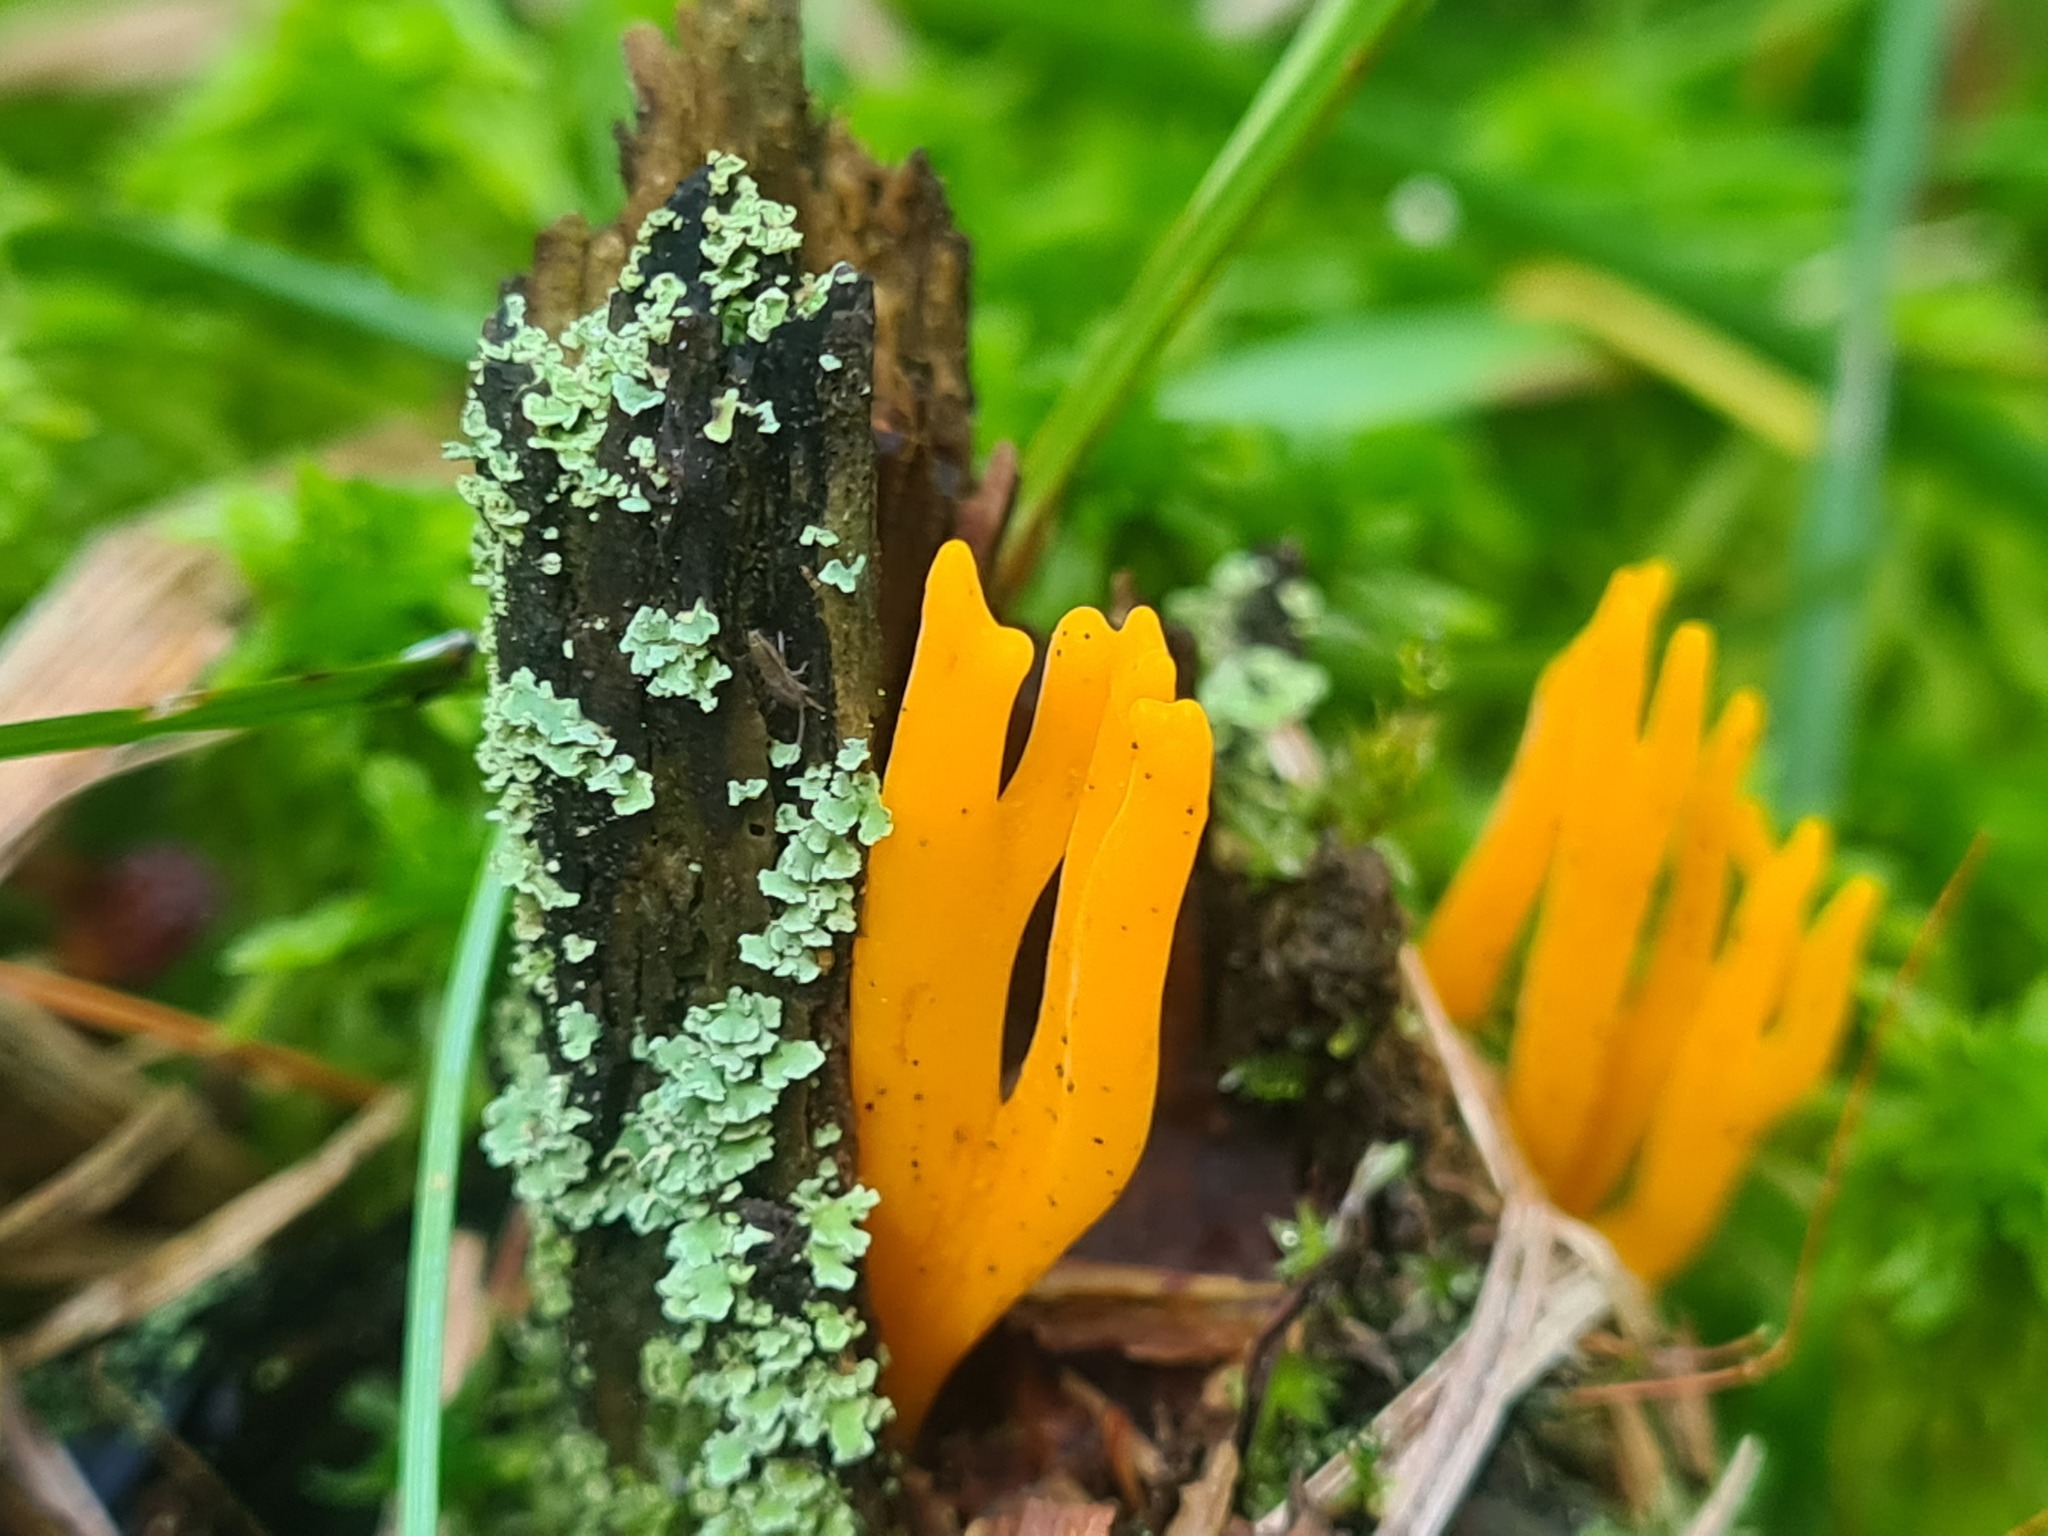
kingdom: Fungi
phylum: Basidiomycota
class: Dacrymycetes
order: Dacrymycetales
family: Dacrymycetaceae
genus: Calocera
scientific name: Calocera viscosa
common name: Yellow stagshorn
